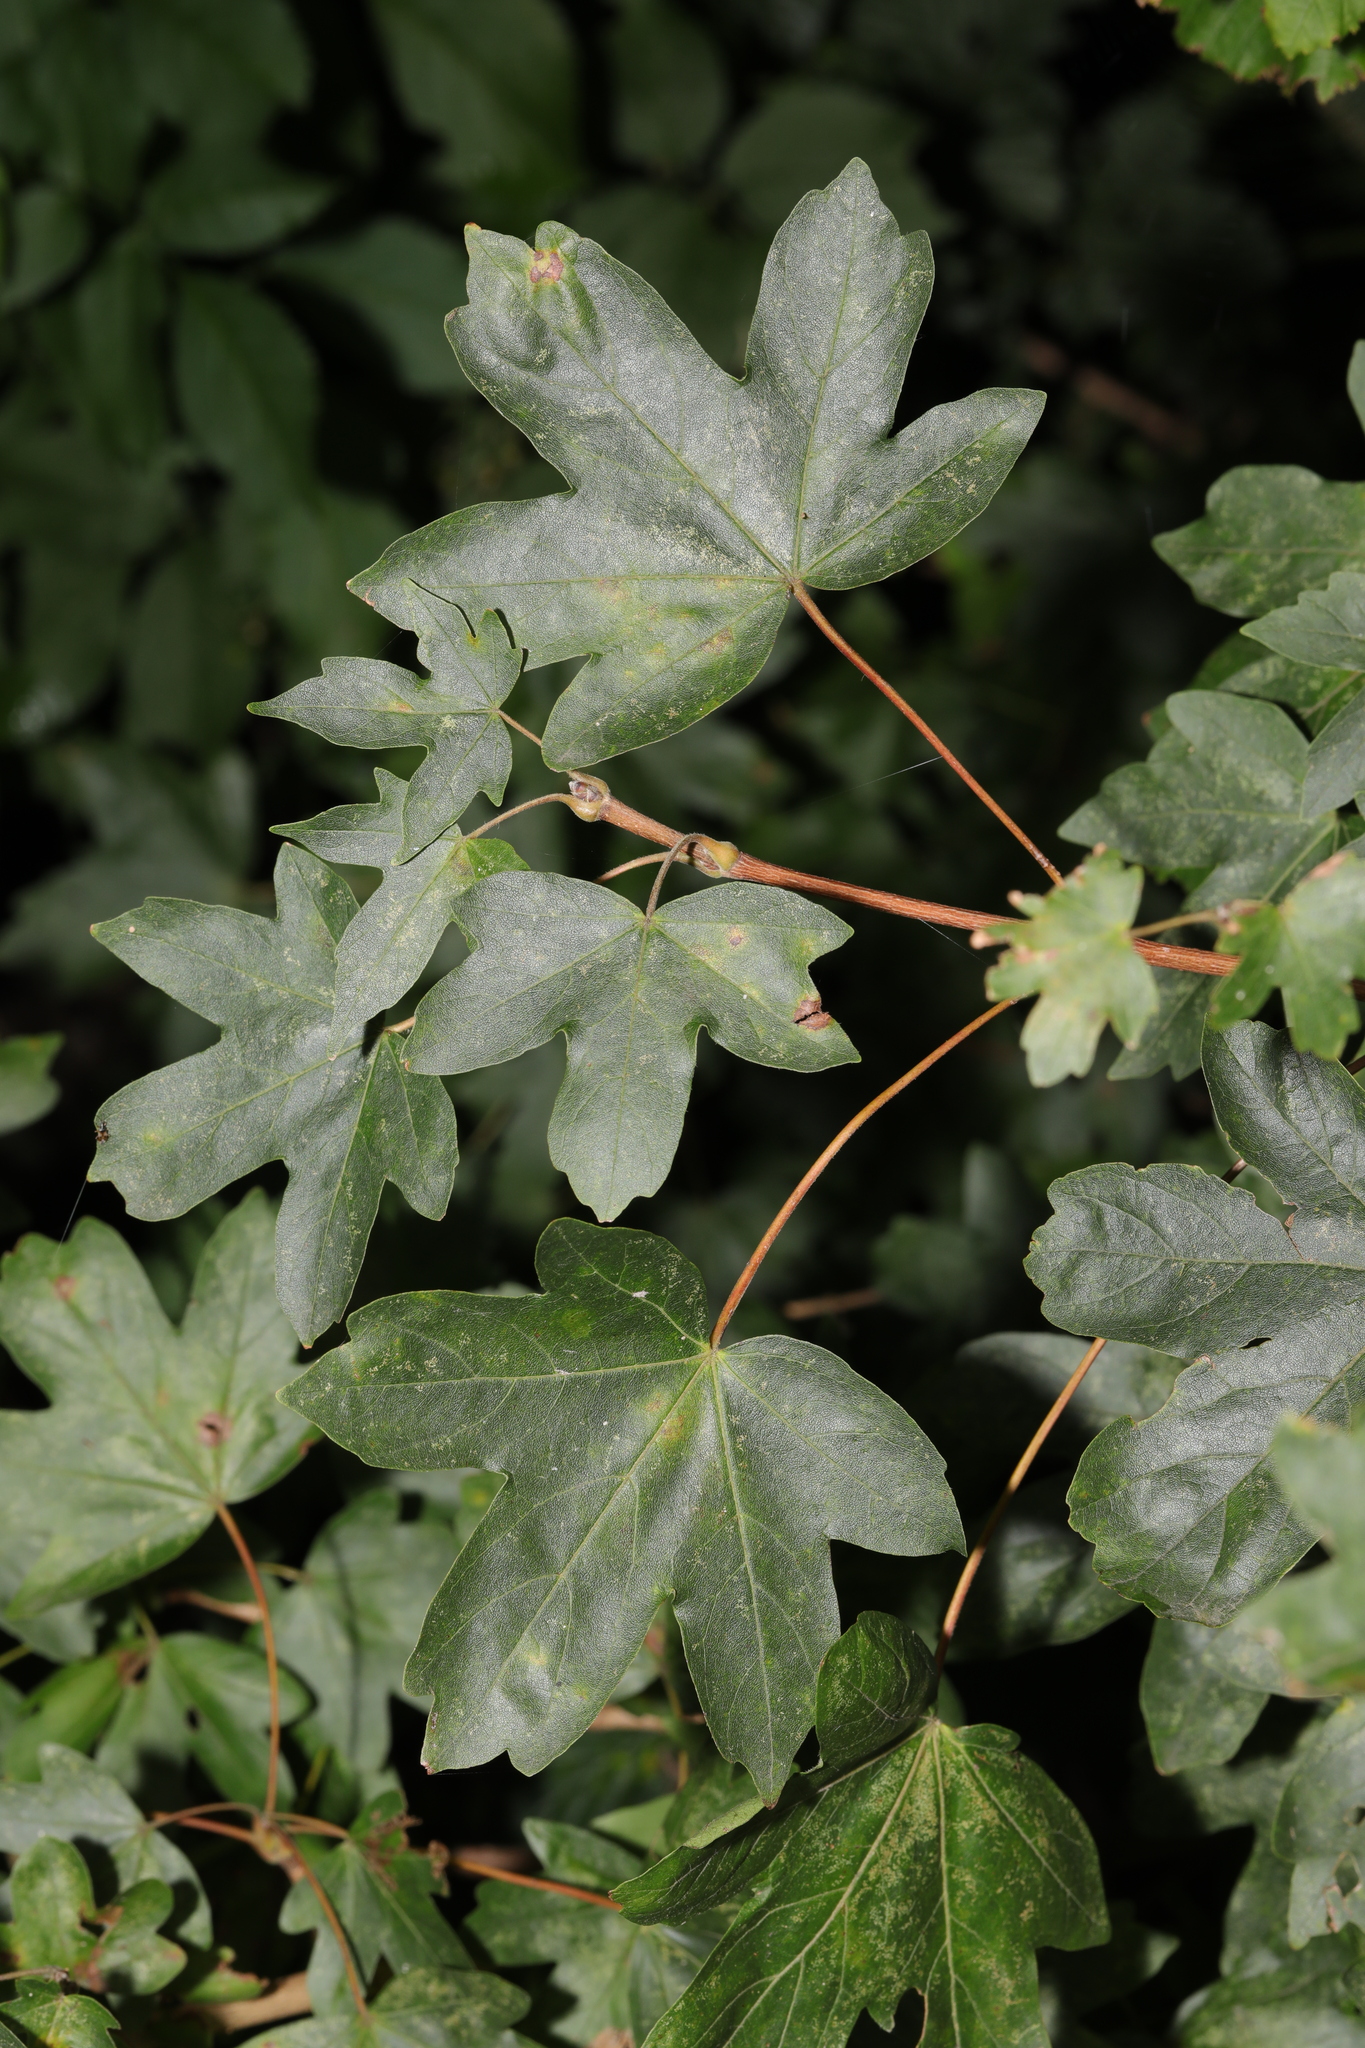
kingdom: Plantae
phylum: Tracheophyta
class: Magnoliopsida
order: Sapindales
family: Sapindaceae
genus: Acer
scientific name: Acer campestre
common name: Field maple
